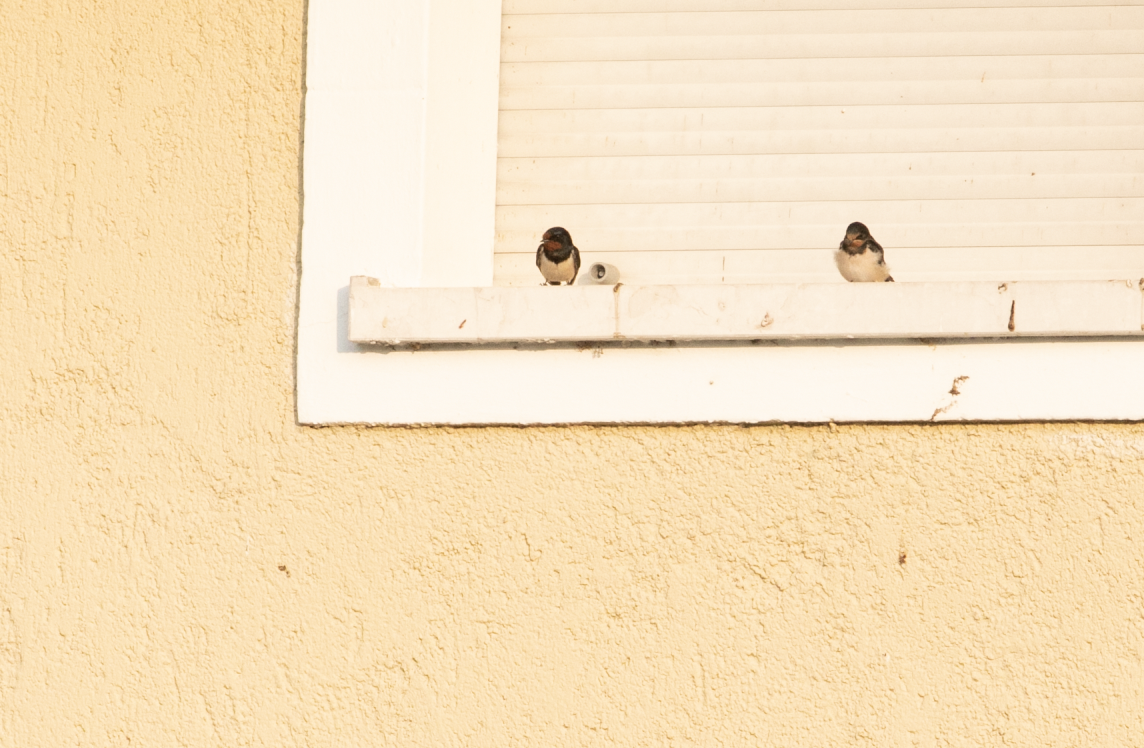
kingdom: Animalia
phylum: Chordata
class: Aves
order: Passeriformes
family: Hirundinidae
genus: Hirundo
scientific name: Hirundo rustica
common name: Barn swallow
